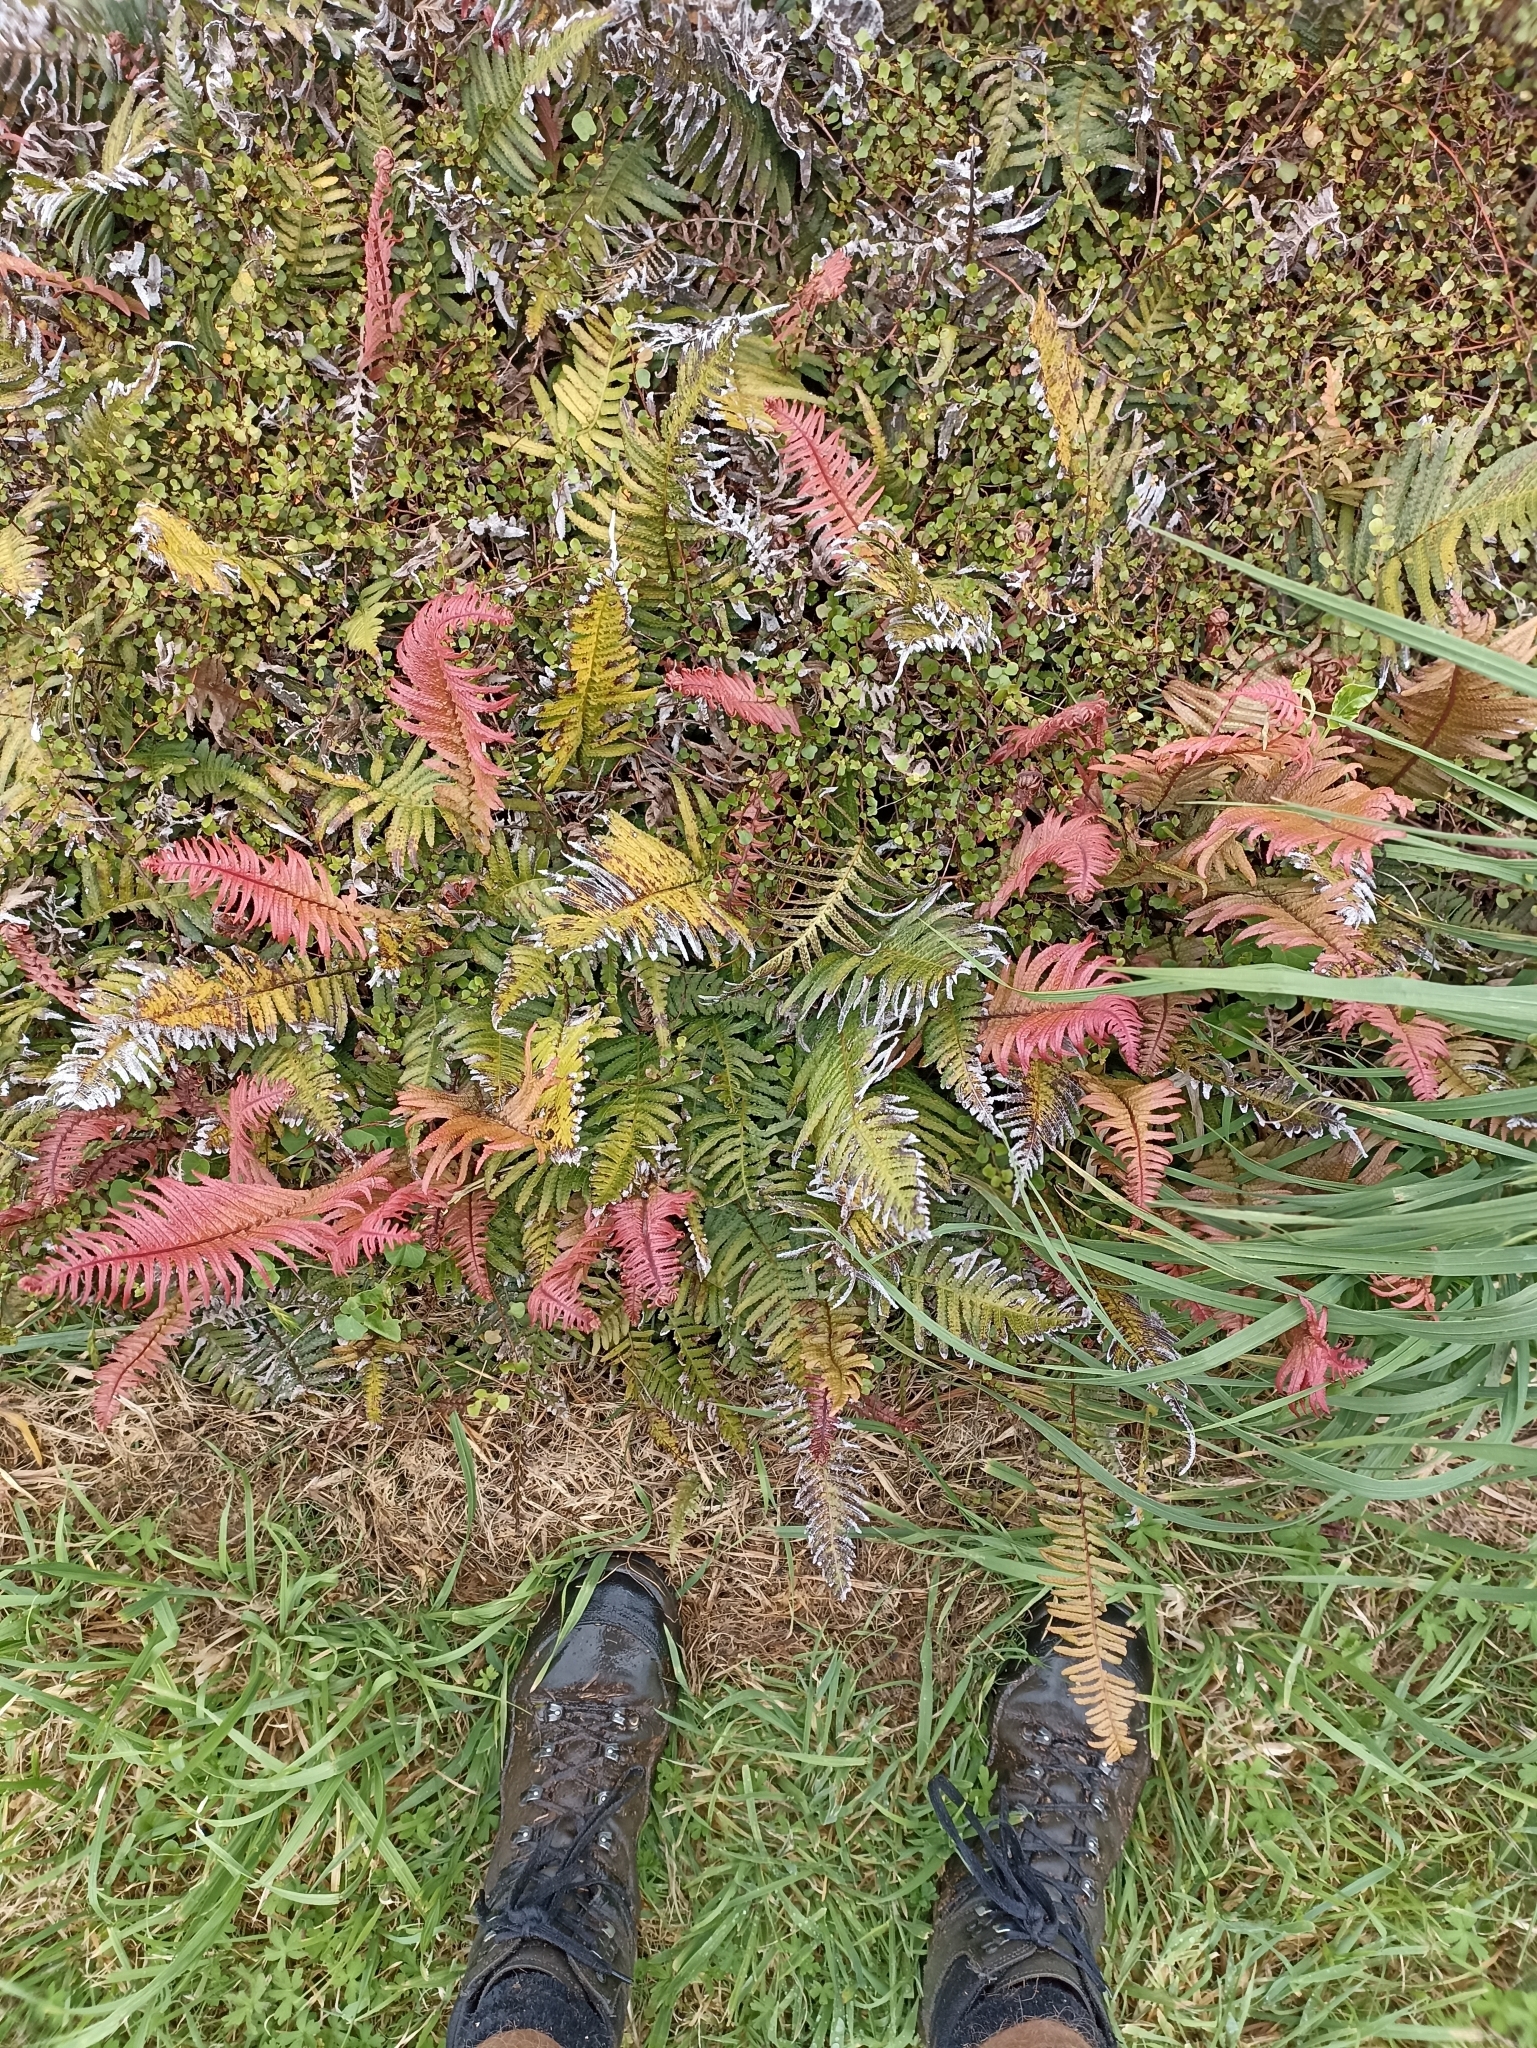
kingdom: Plantae
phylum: Tracheophyta
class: Polypodiopsida
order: Polypodiales
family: Blechnaceae
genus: Doodia
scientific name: Doodia australis
